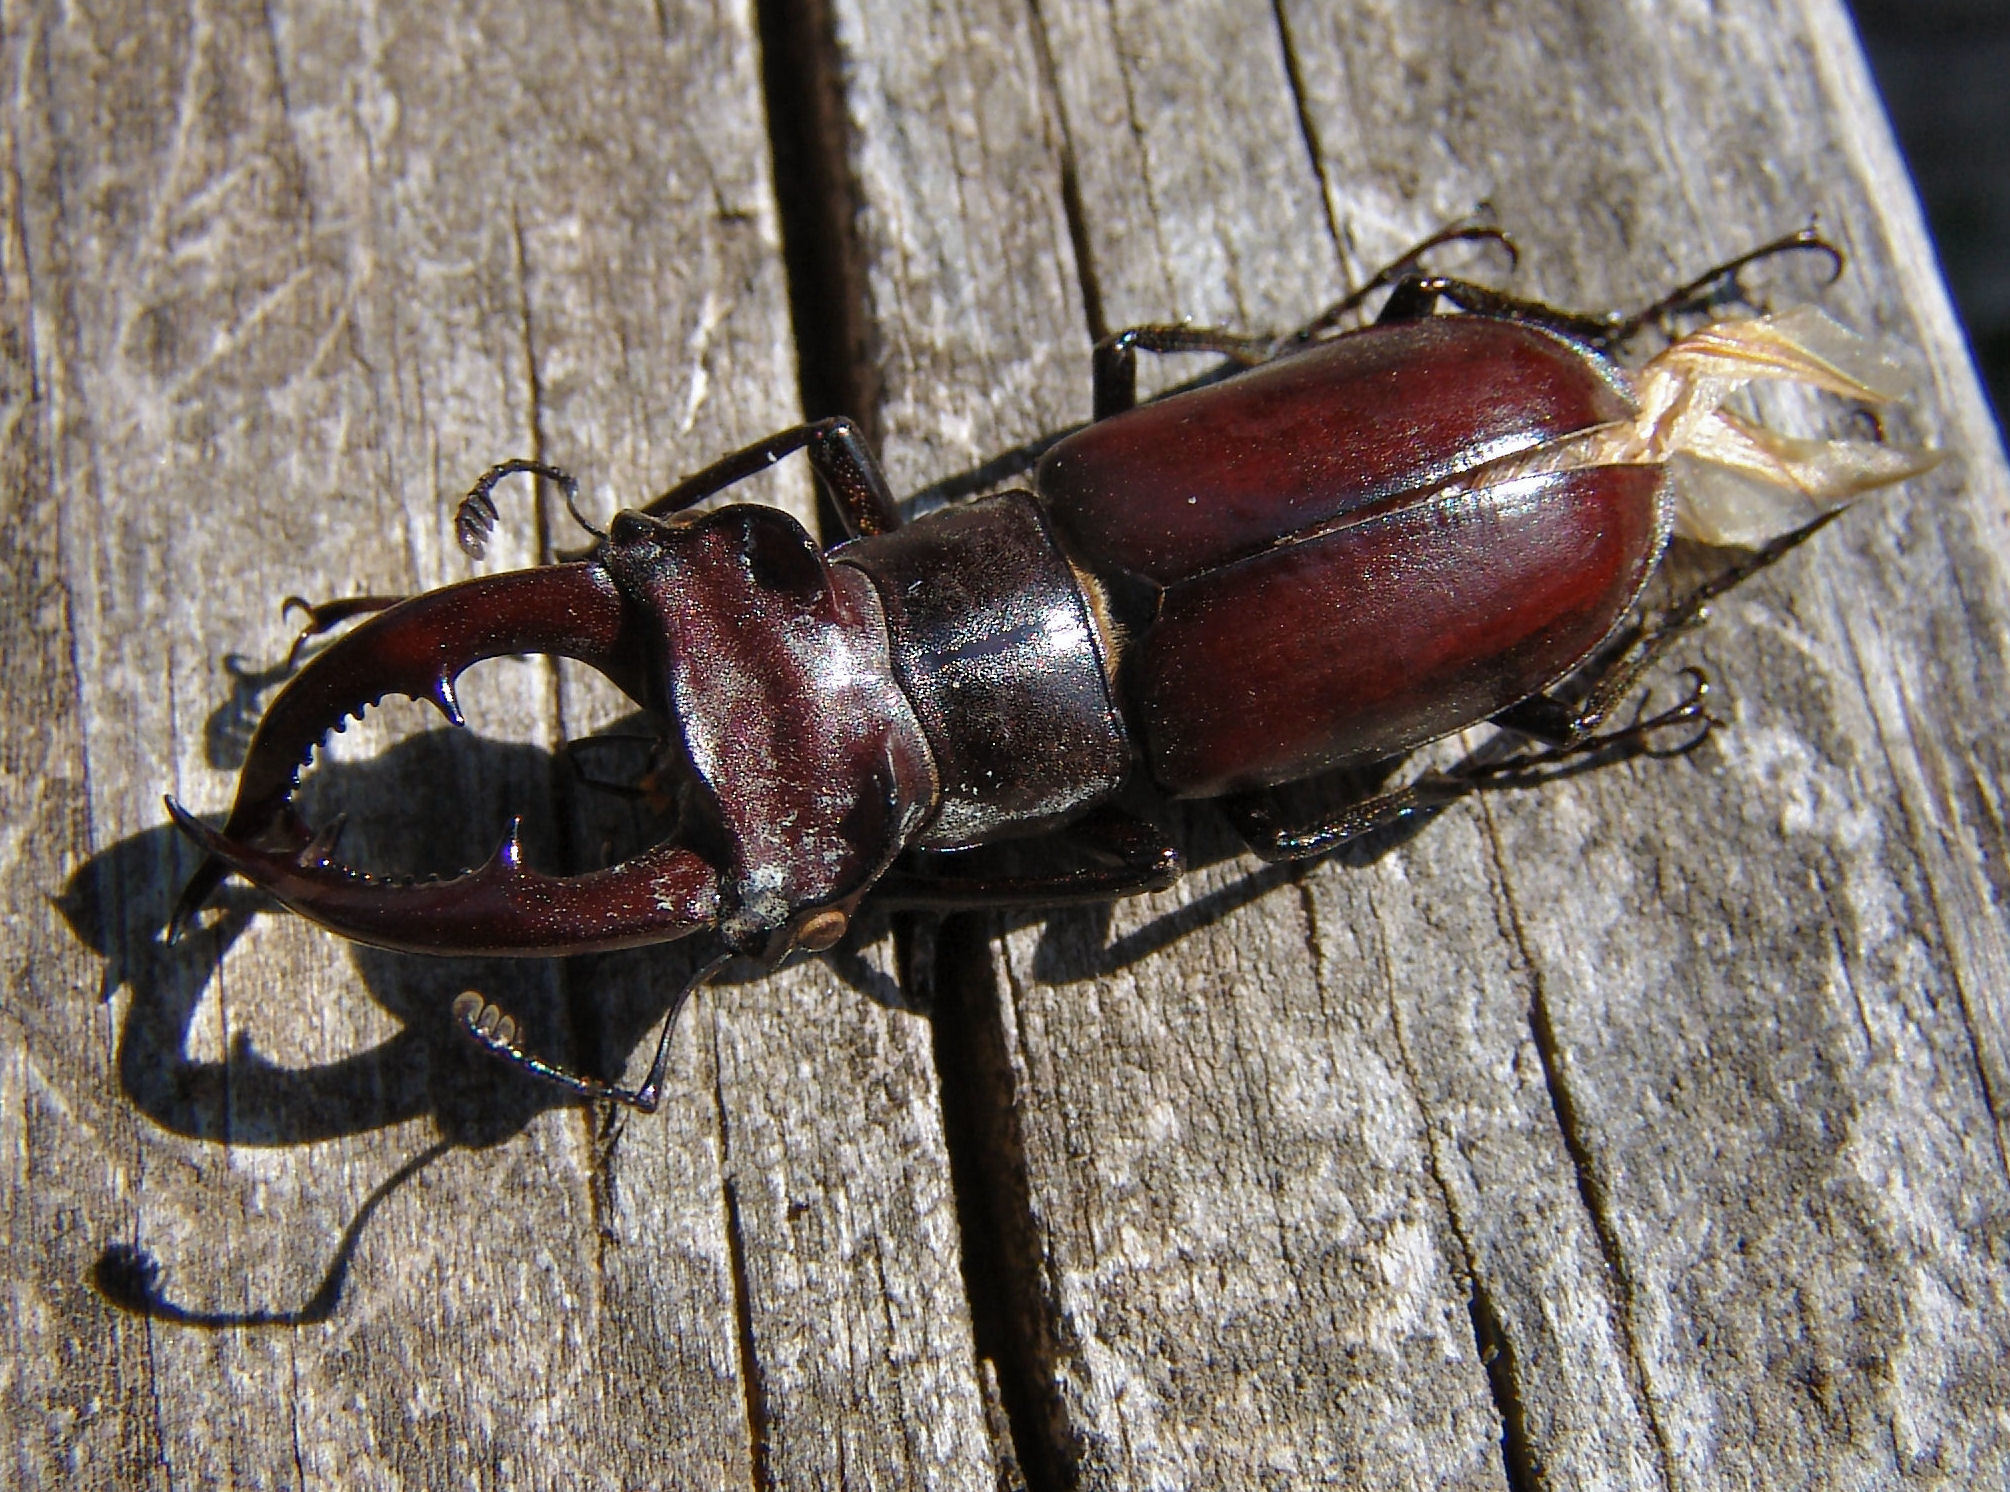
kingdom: Animalia
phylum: Arthropoda
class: Insecta
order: Coleoptera
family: Lucanidae
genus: Lucanus
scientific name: Lucanus elaphus
